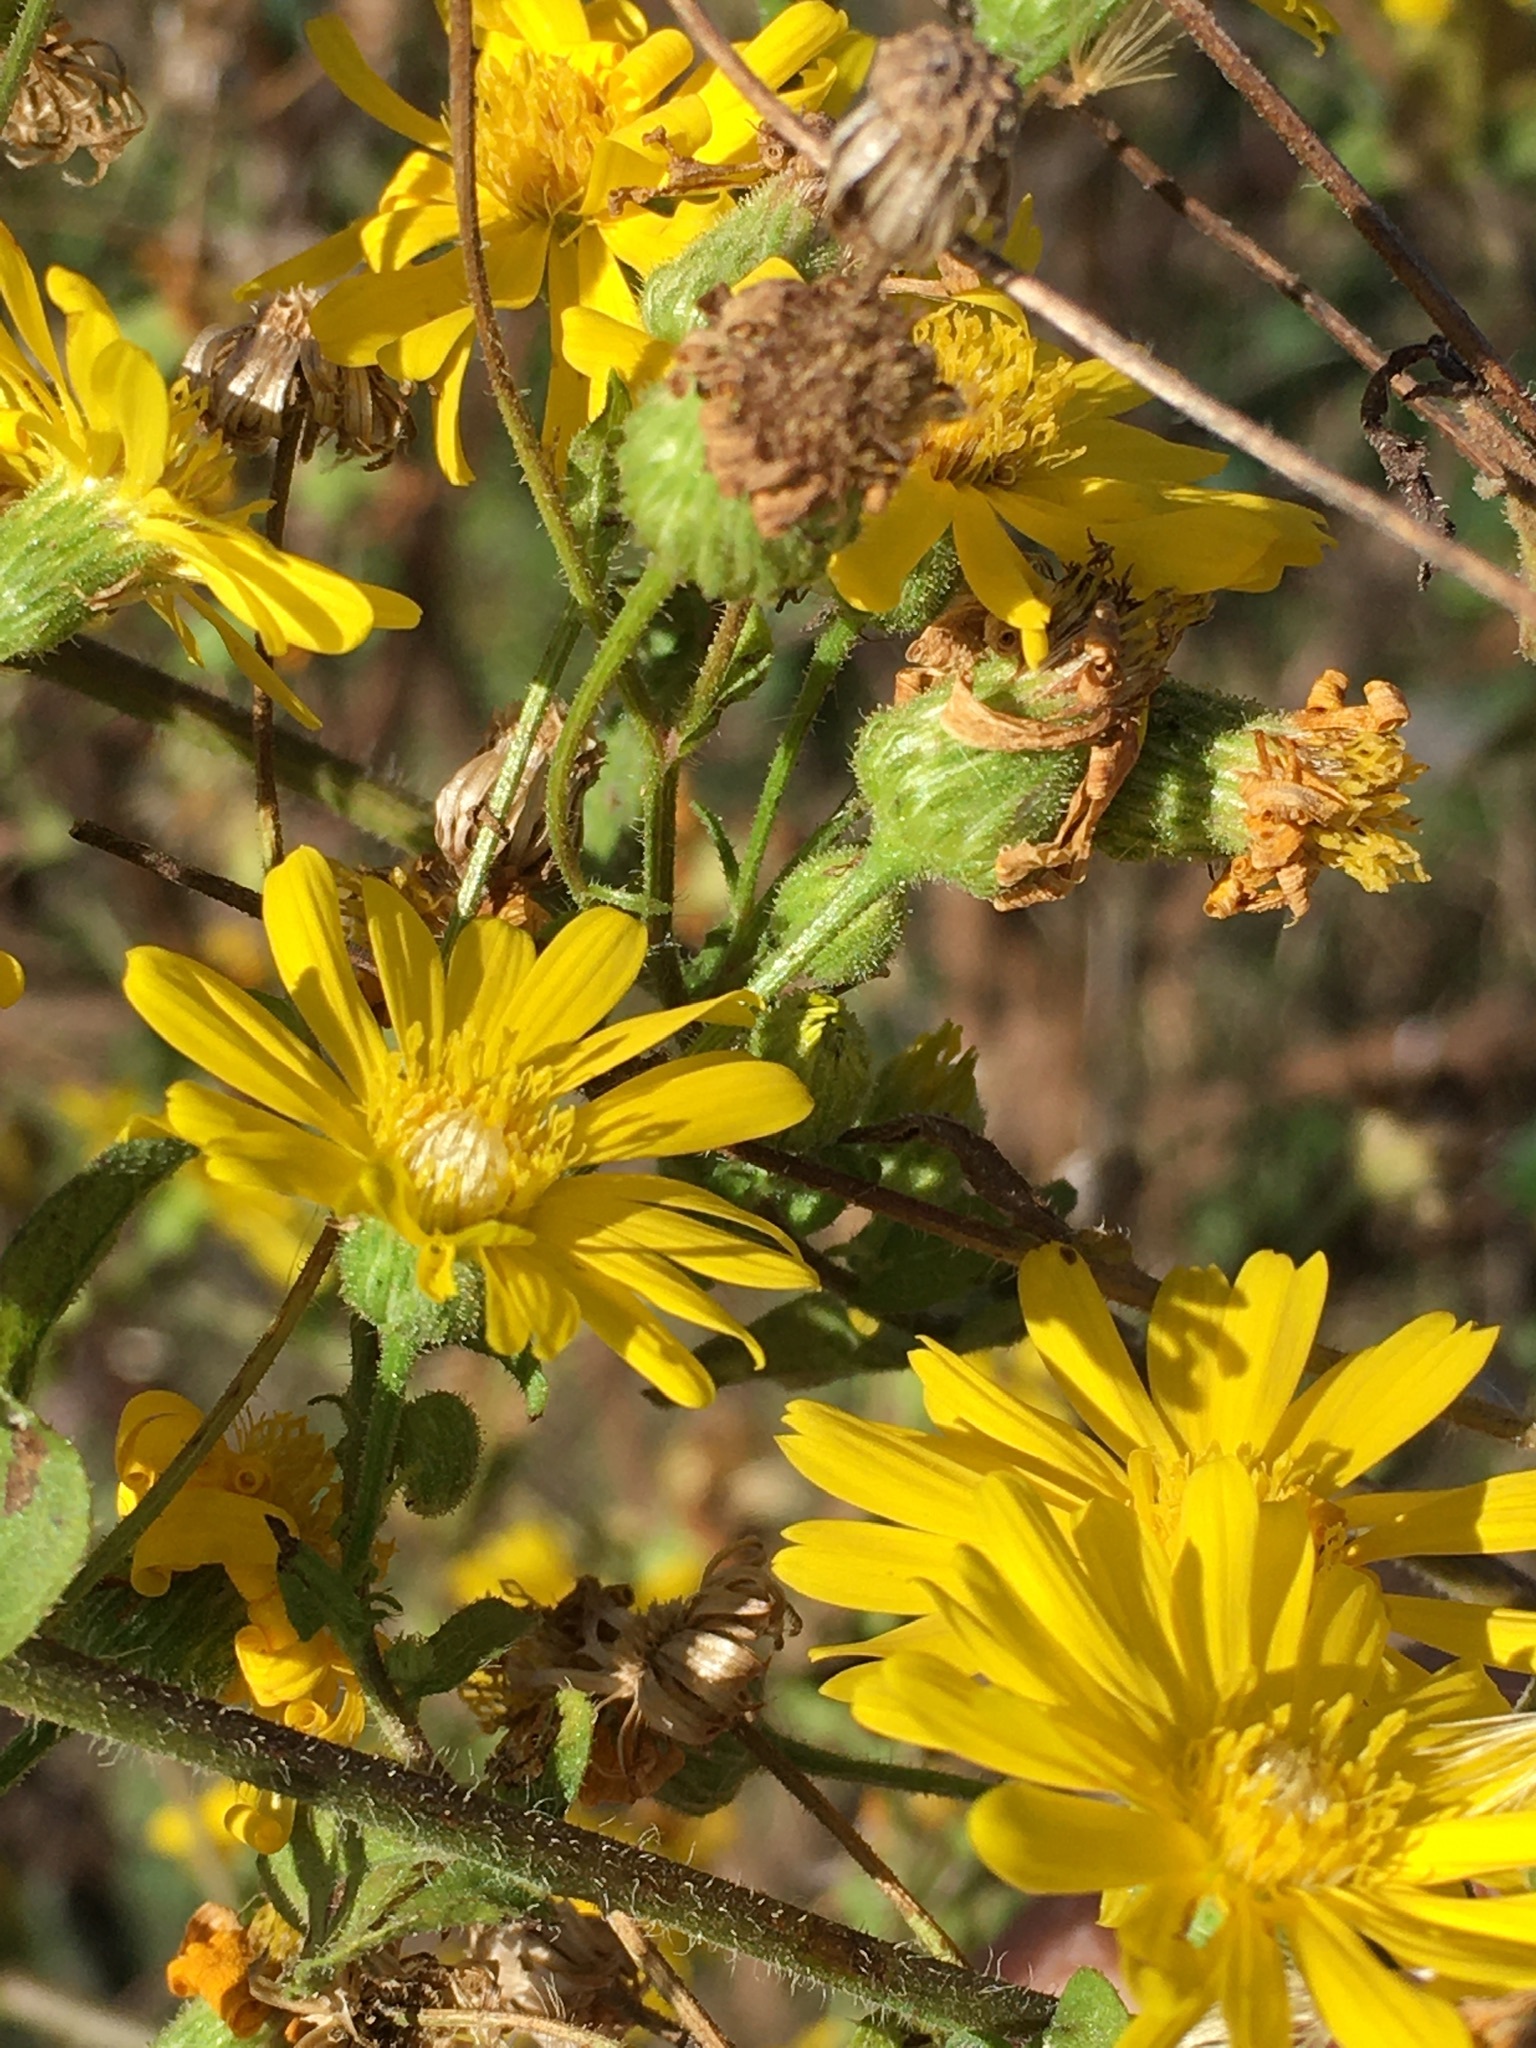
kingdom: Plantae
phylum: Tracheophyta
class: Magnoliopsida
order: Asterales
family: Asteraceae
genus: Heterotheca
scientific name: Heterotheca subaxillaris
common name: Camphorweed
